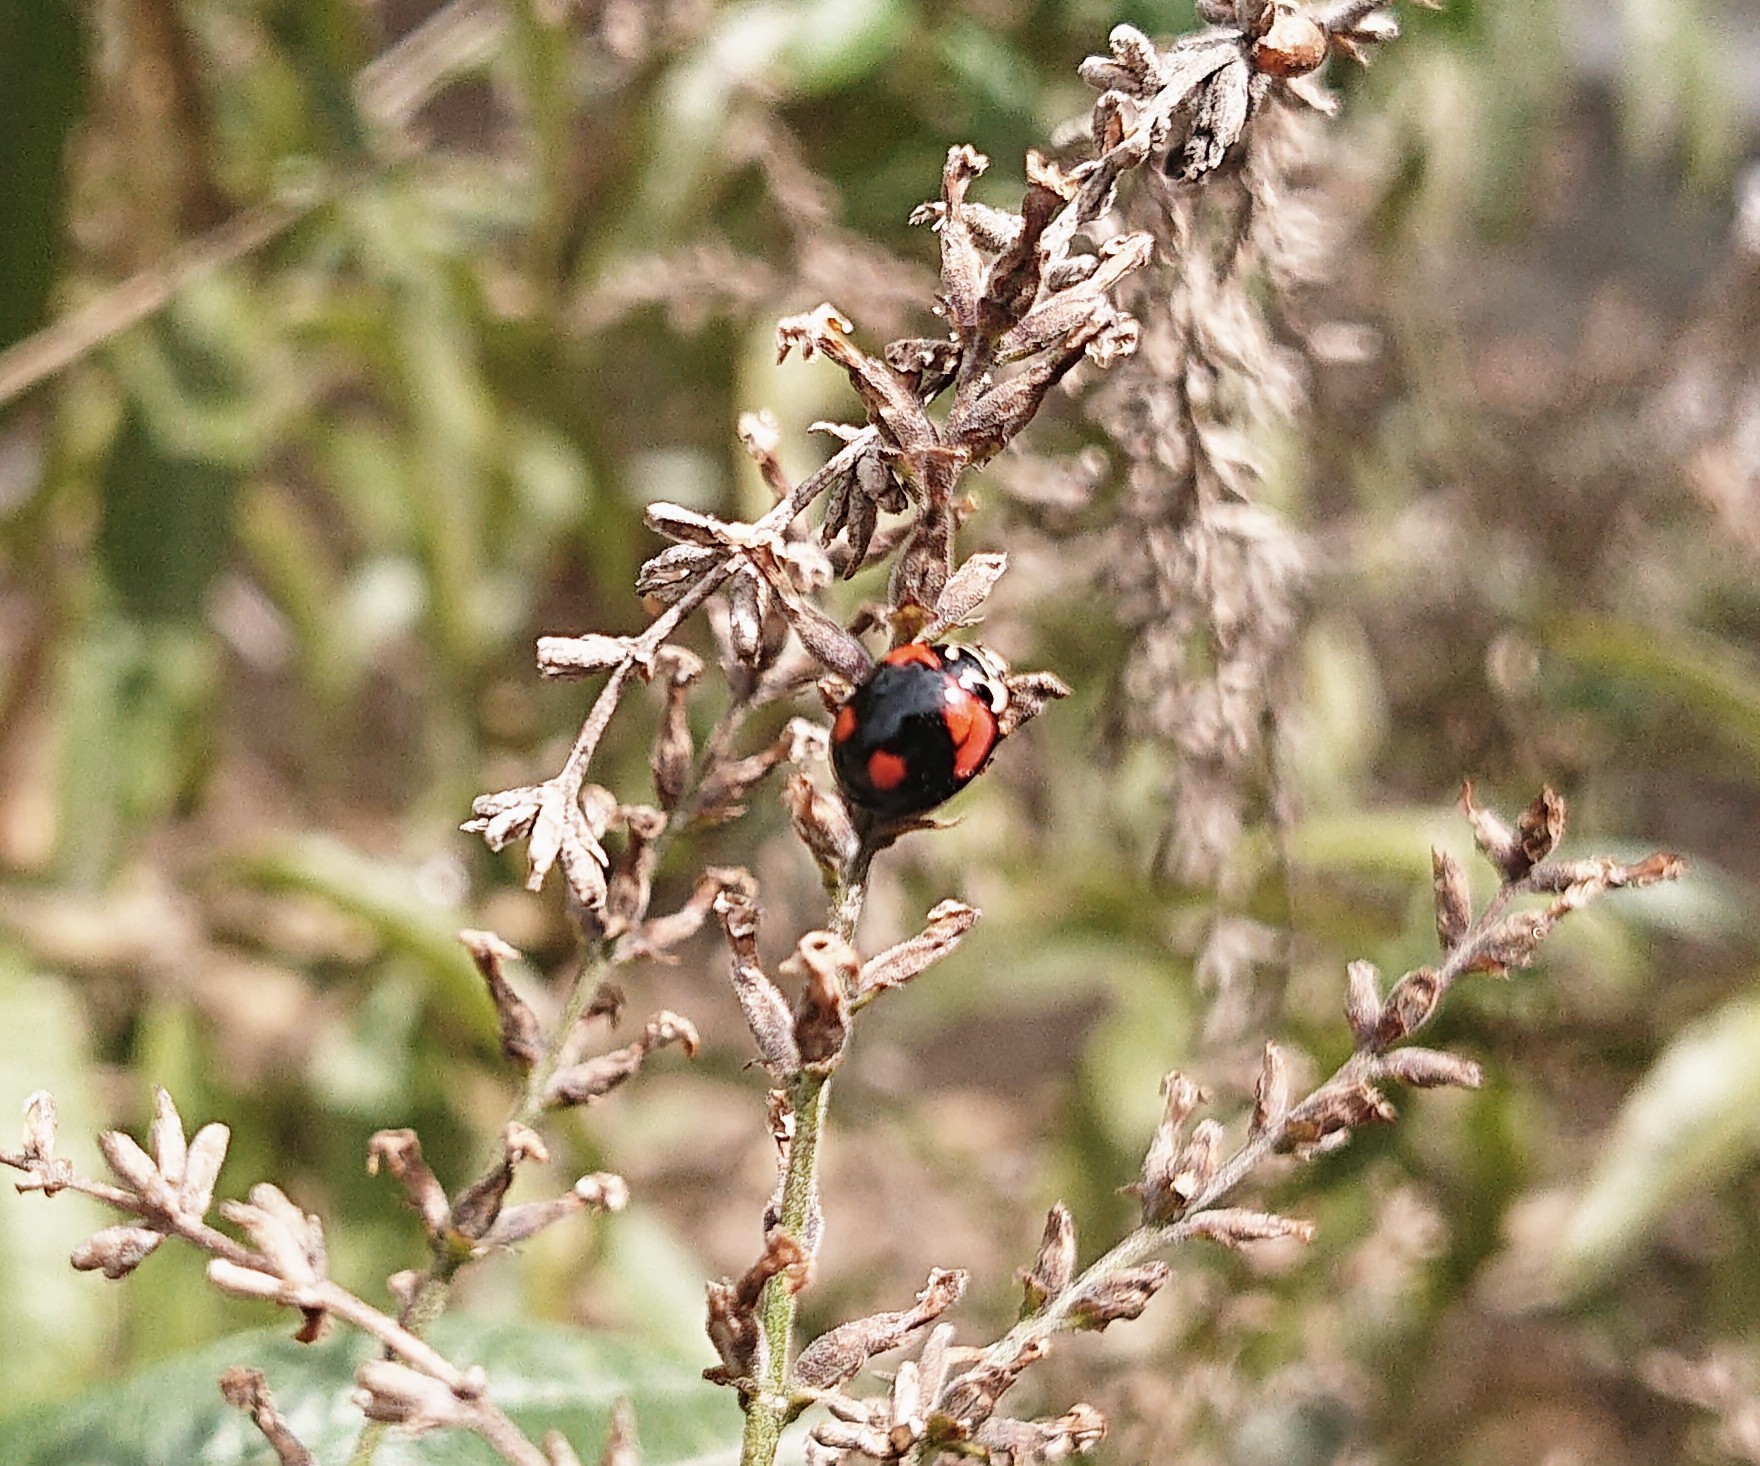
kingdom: Animalia
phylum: Arthropoda
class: Insecta
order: Coleoptera
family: Coccinellidae
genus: Cheilomenes
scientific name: Cheilomenes sexmaculata
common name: Ladybird beetle
